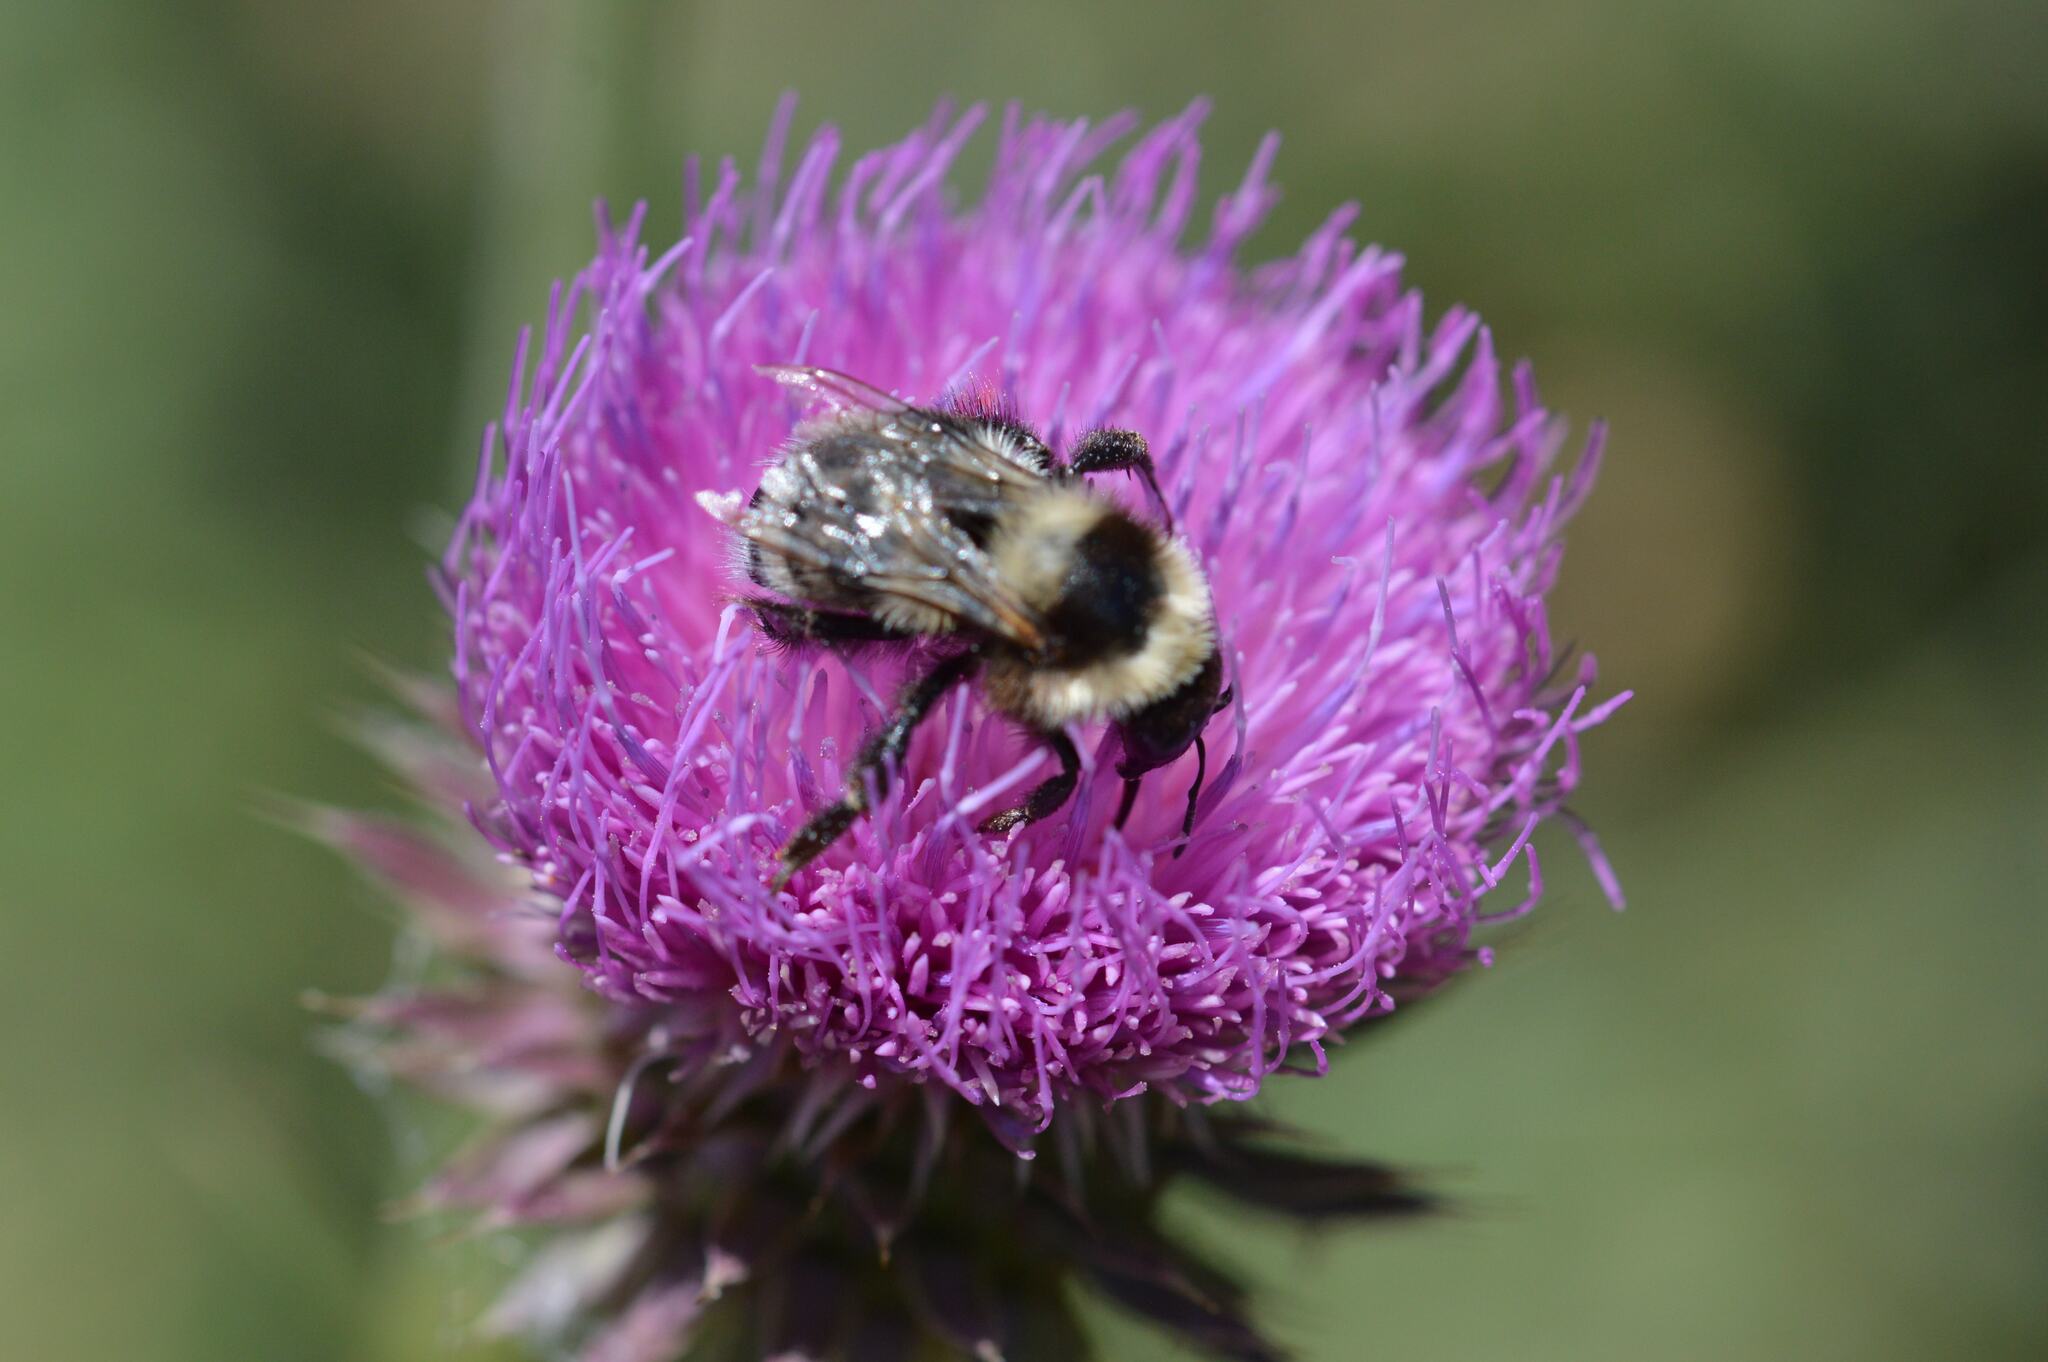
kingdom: Animalia
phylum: Arthropoda
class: Insecta
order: Hymenoptera
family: Apidae
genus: Bombus
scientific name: Bombus ruderatus
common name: Large garden bumblebee
